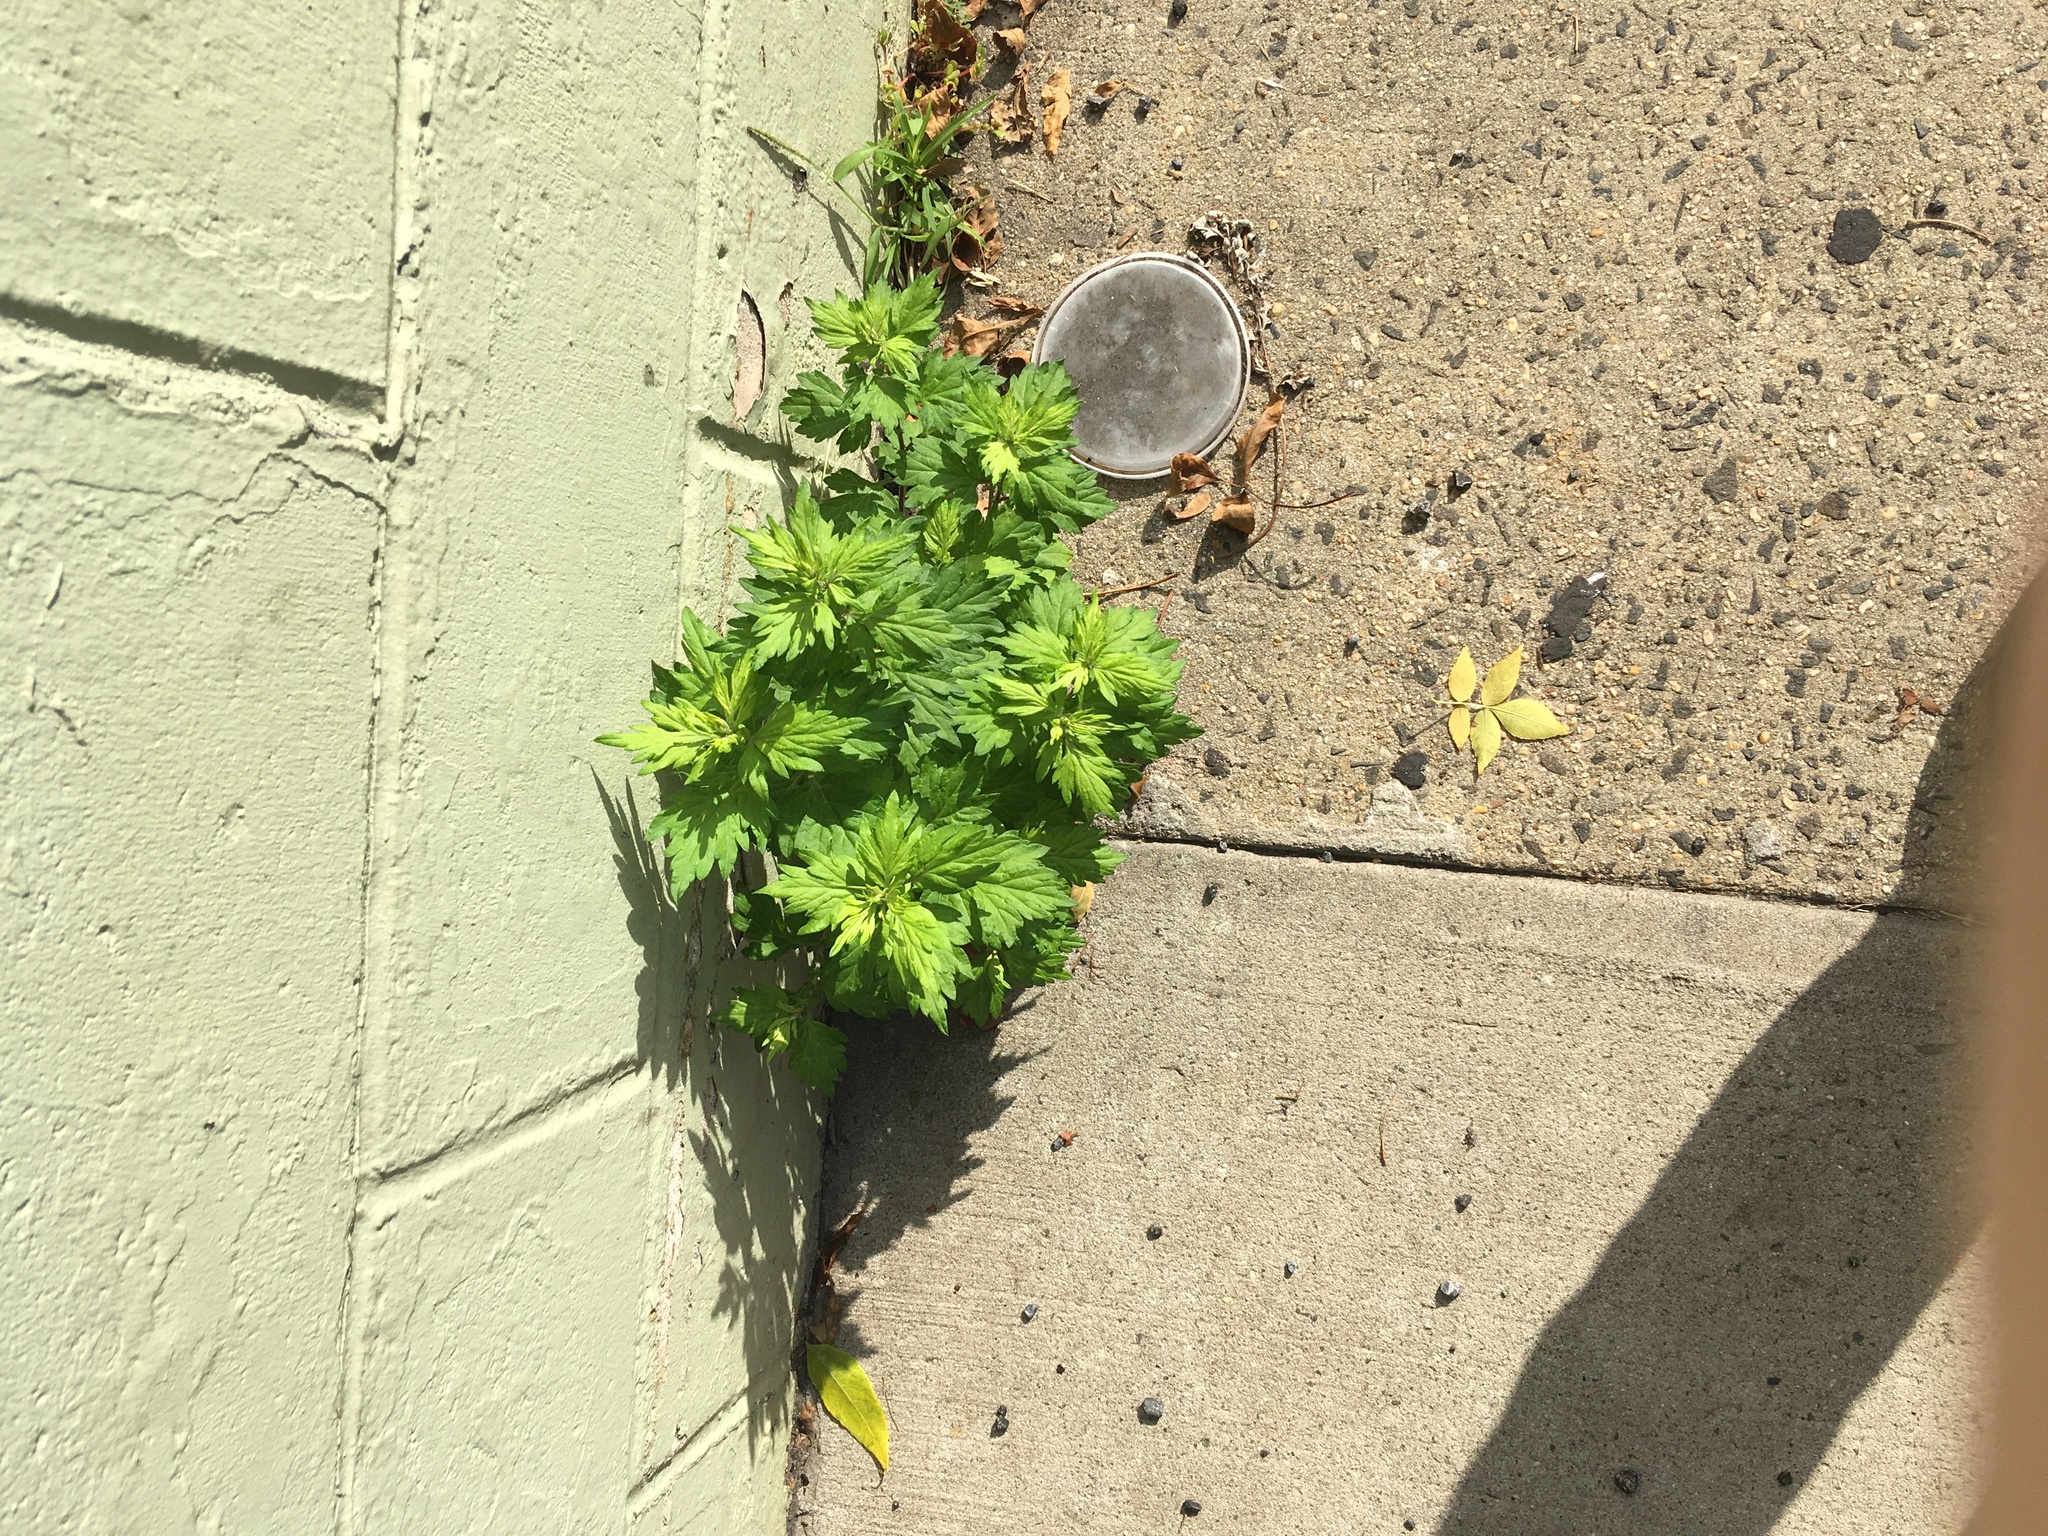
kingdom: Plantae
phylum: Tracheophyta
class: Magnoliopsida
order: Asterales
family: Asteraceae
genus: Artemisia
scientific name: Artemisia vulgaris
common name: Mugwort
